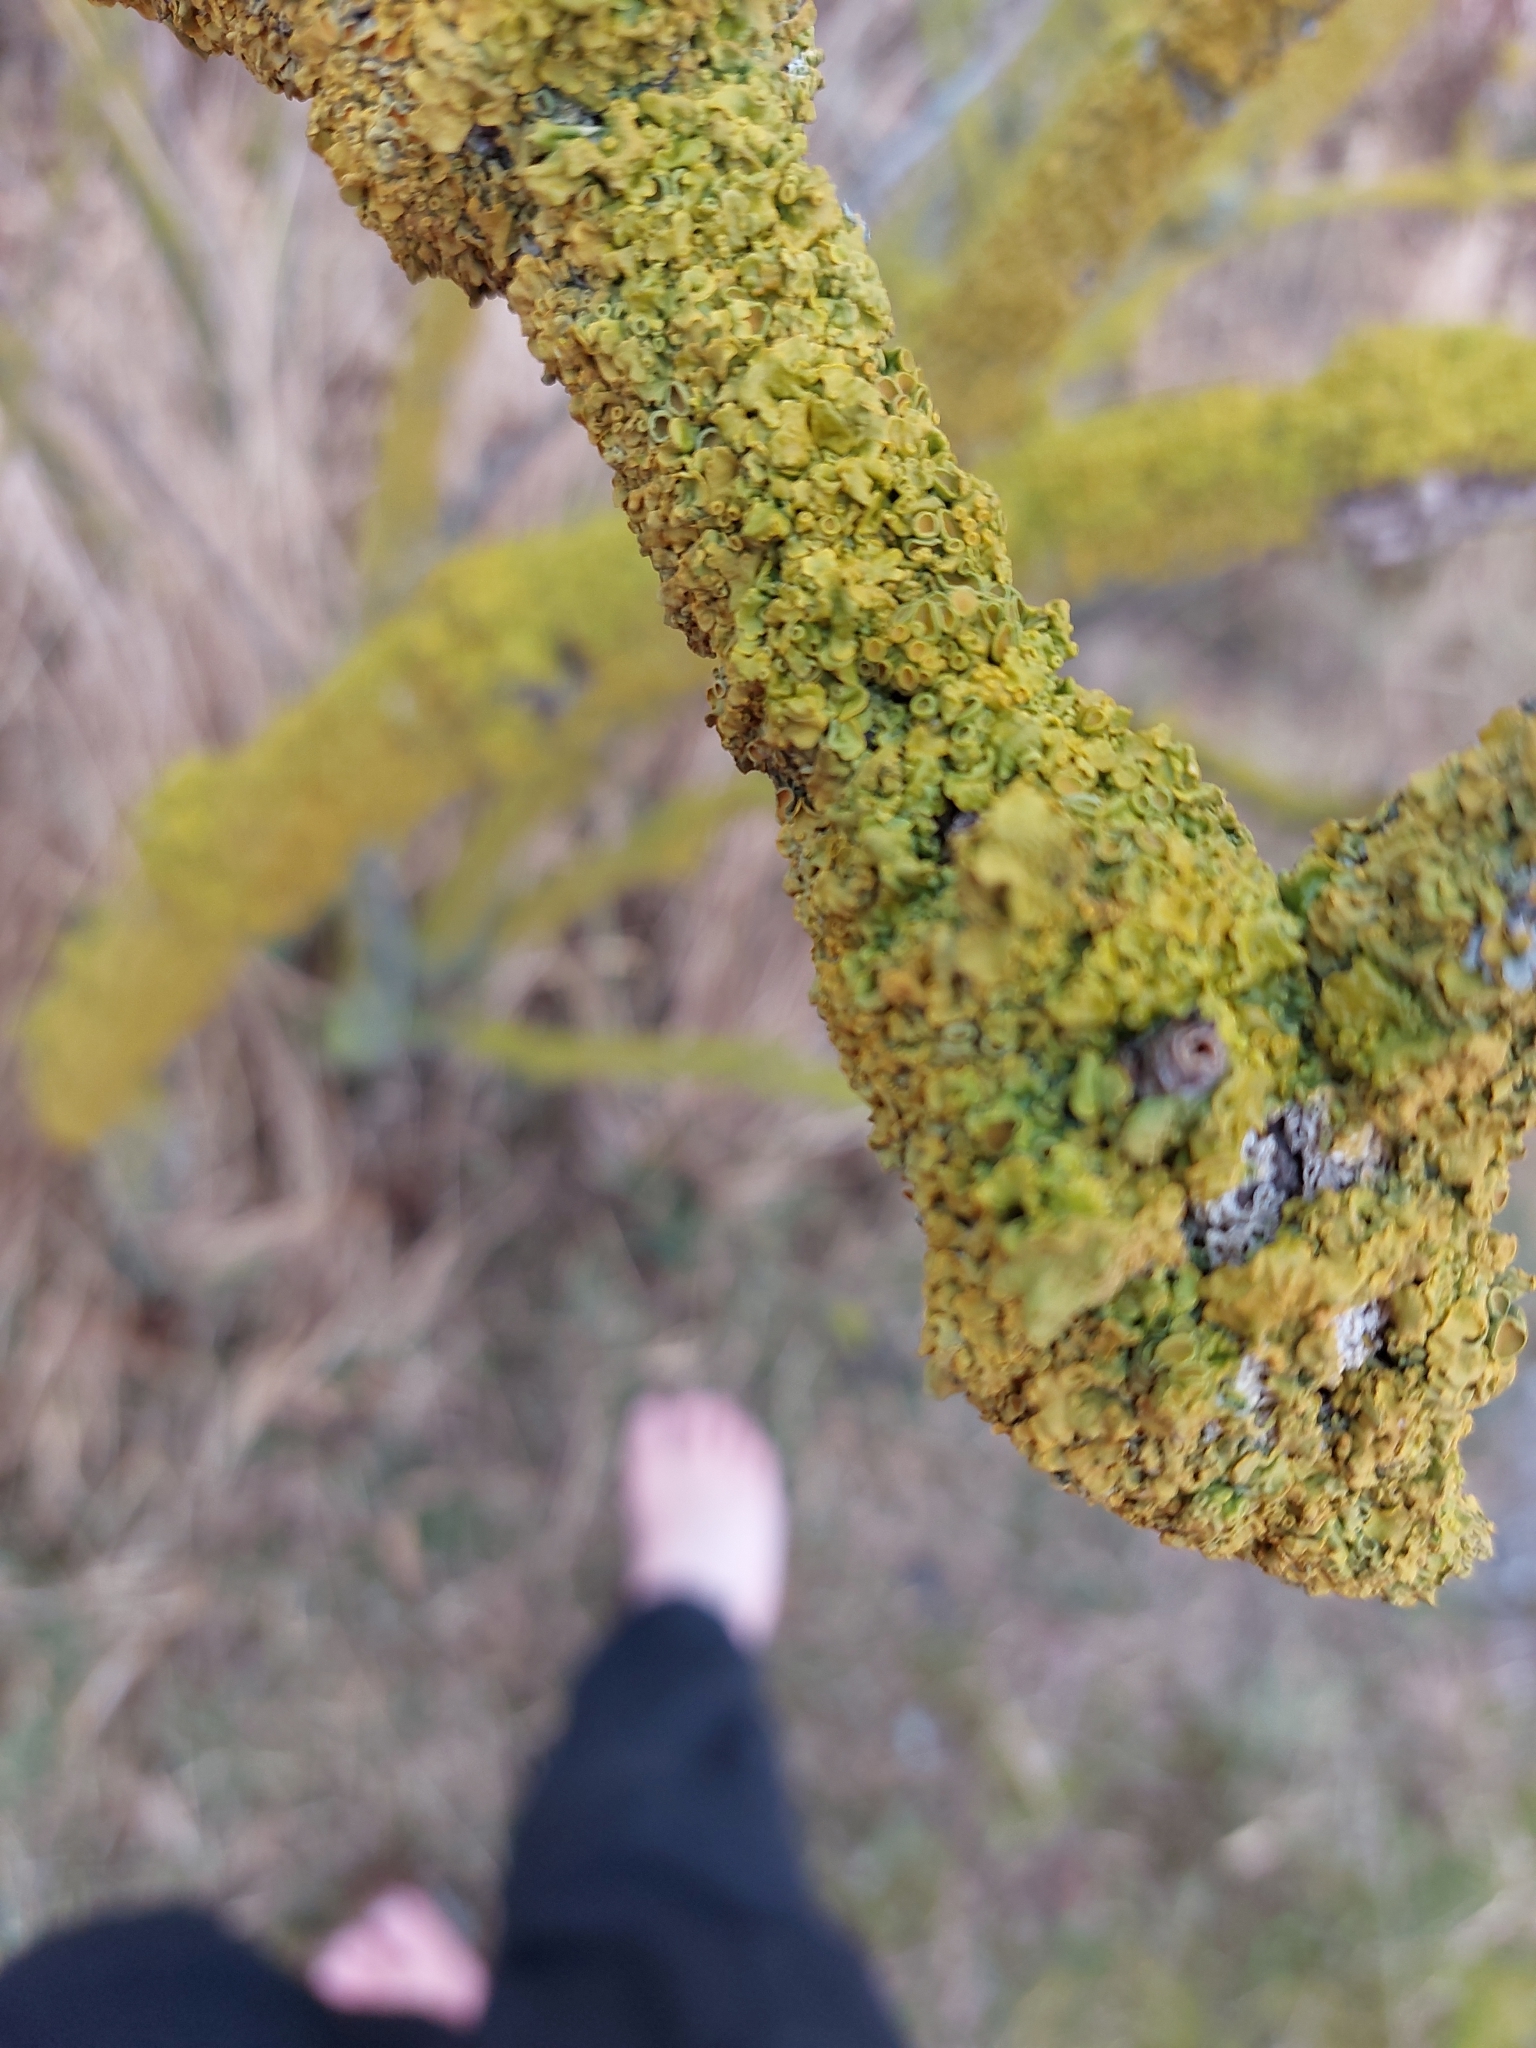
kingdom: Fungi
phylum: Ascomycota
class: Lecanoromycetes
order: Teloschistales
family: Teloschistaceae
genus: Xanthoria
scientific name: Xanthoria parietina
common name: Common orange lichen
